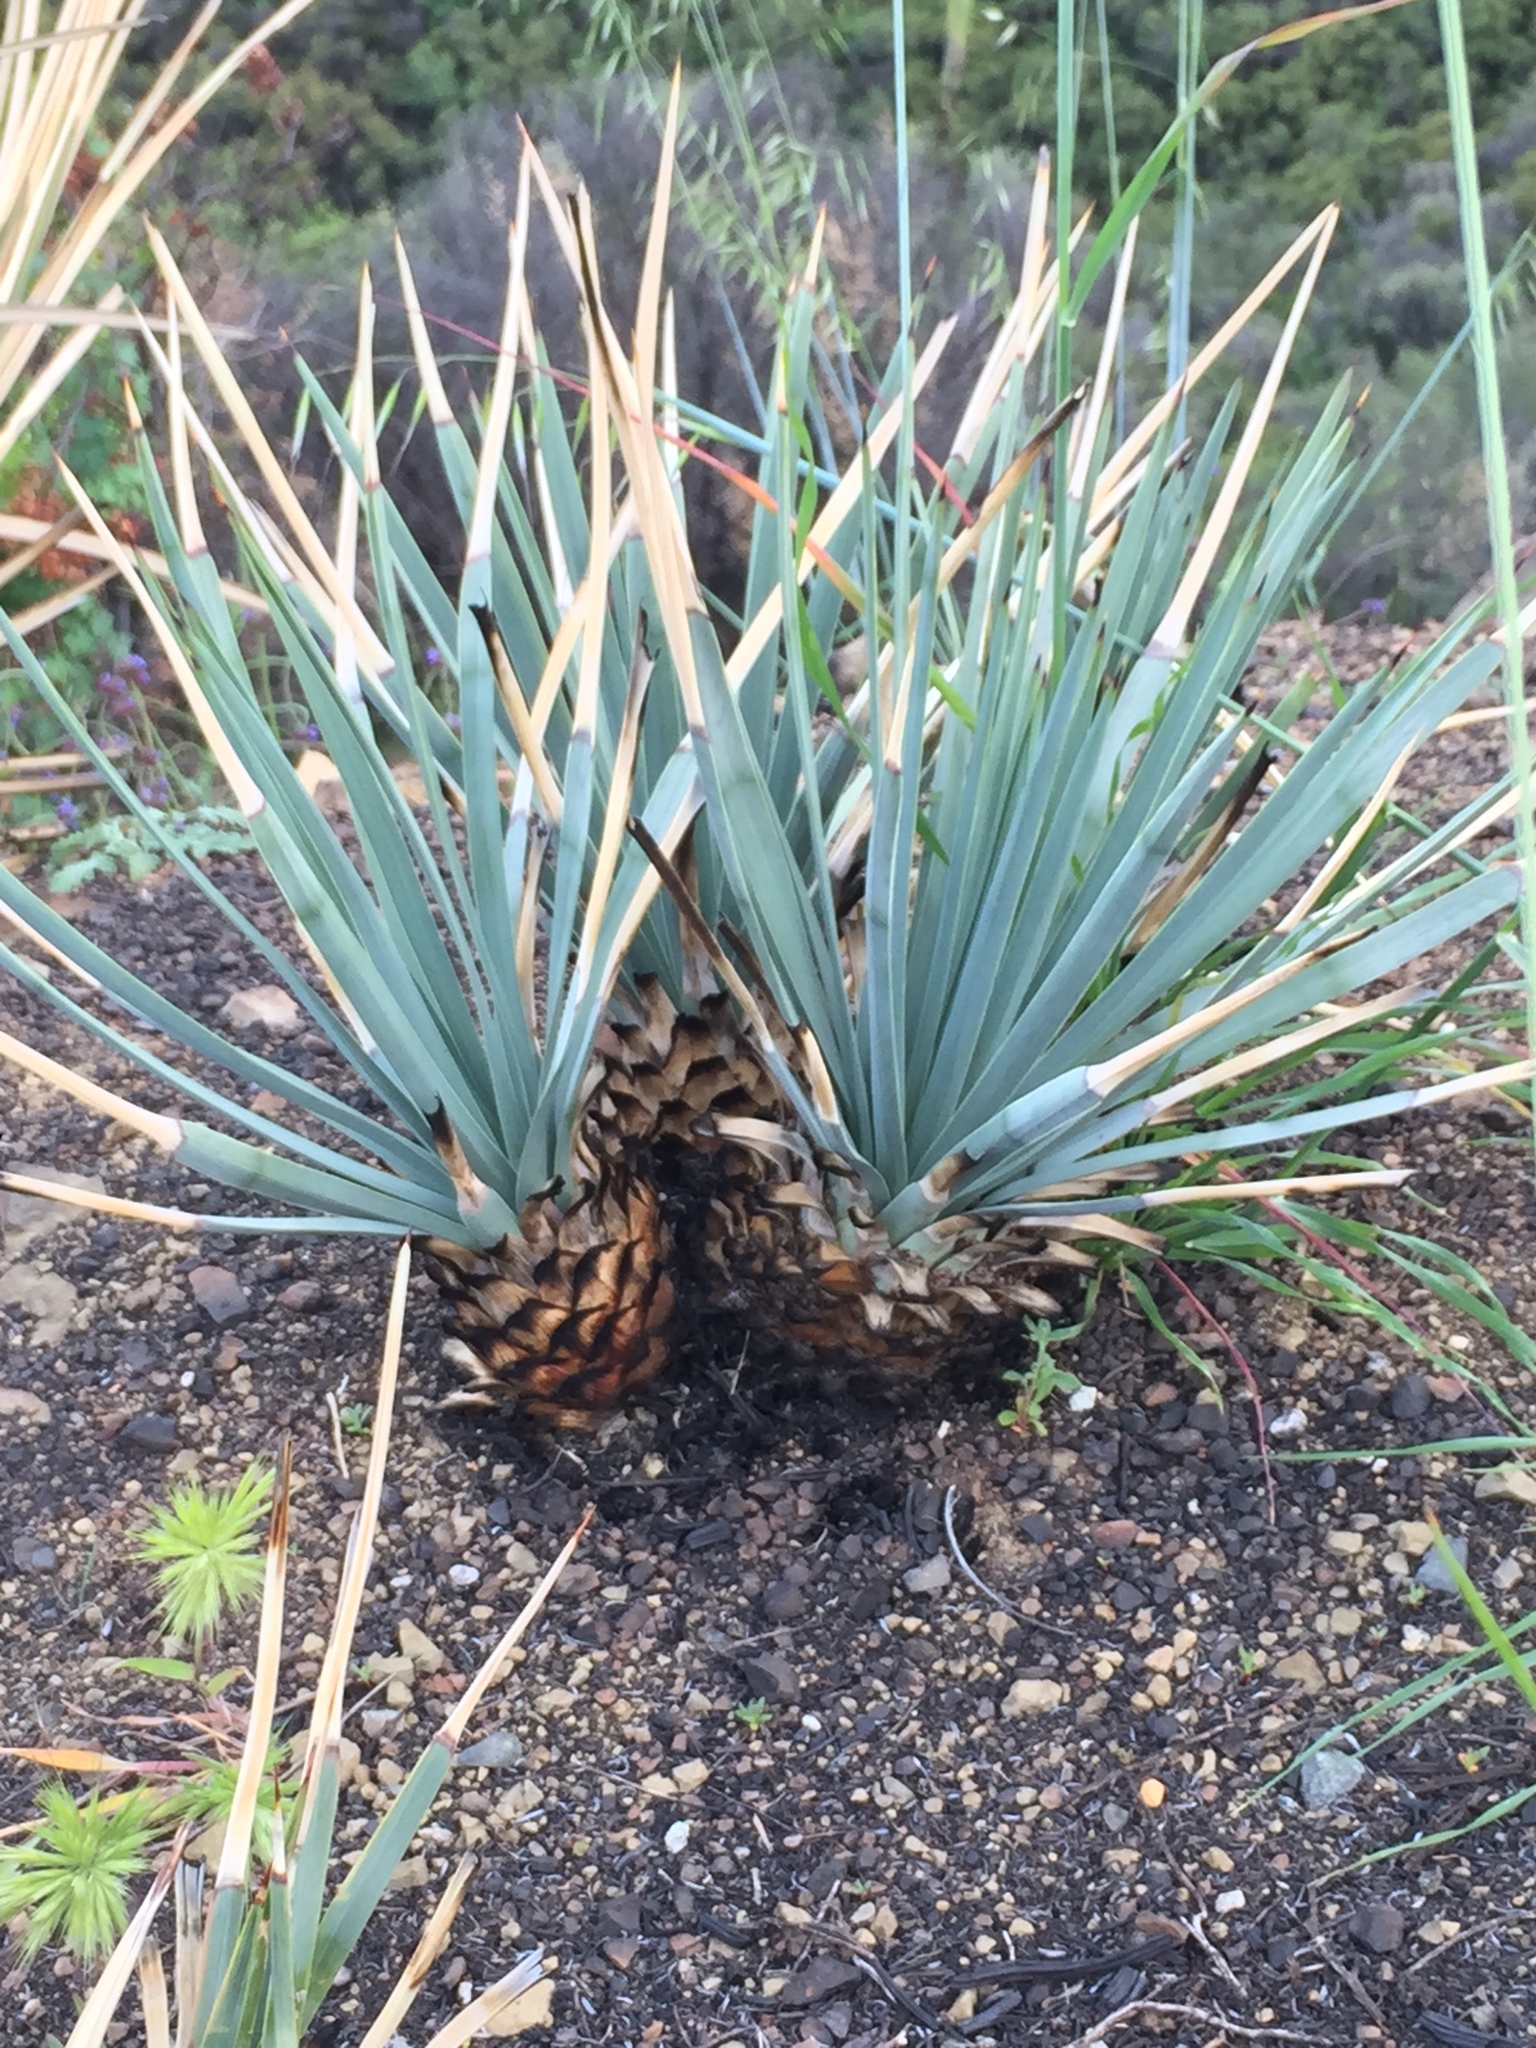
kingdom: Plantae
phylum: Tracheophyta
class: Liliopsida
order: Asparagales
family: Asparagaceae
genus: Hesperoyucca
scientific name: Hesperoyucca whipplei
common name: Our lord's-candle
